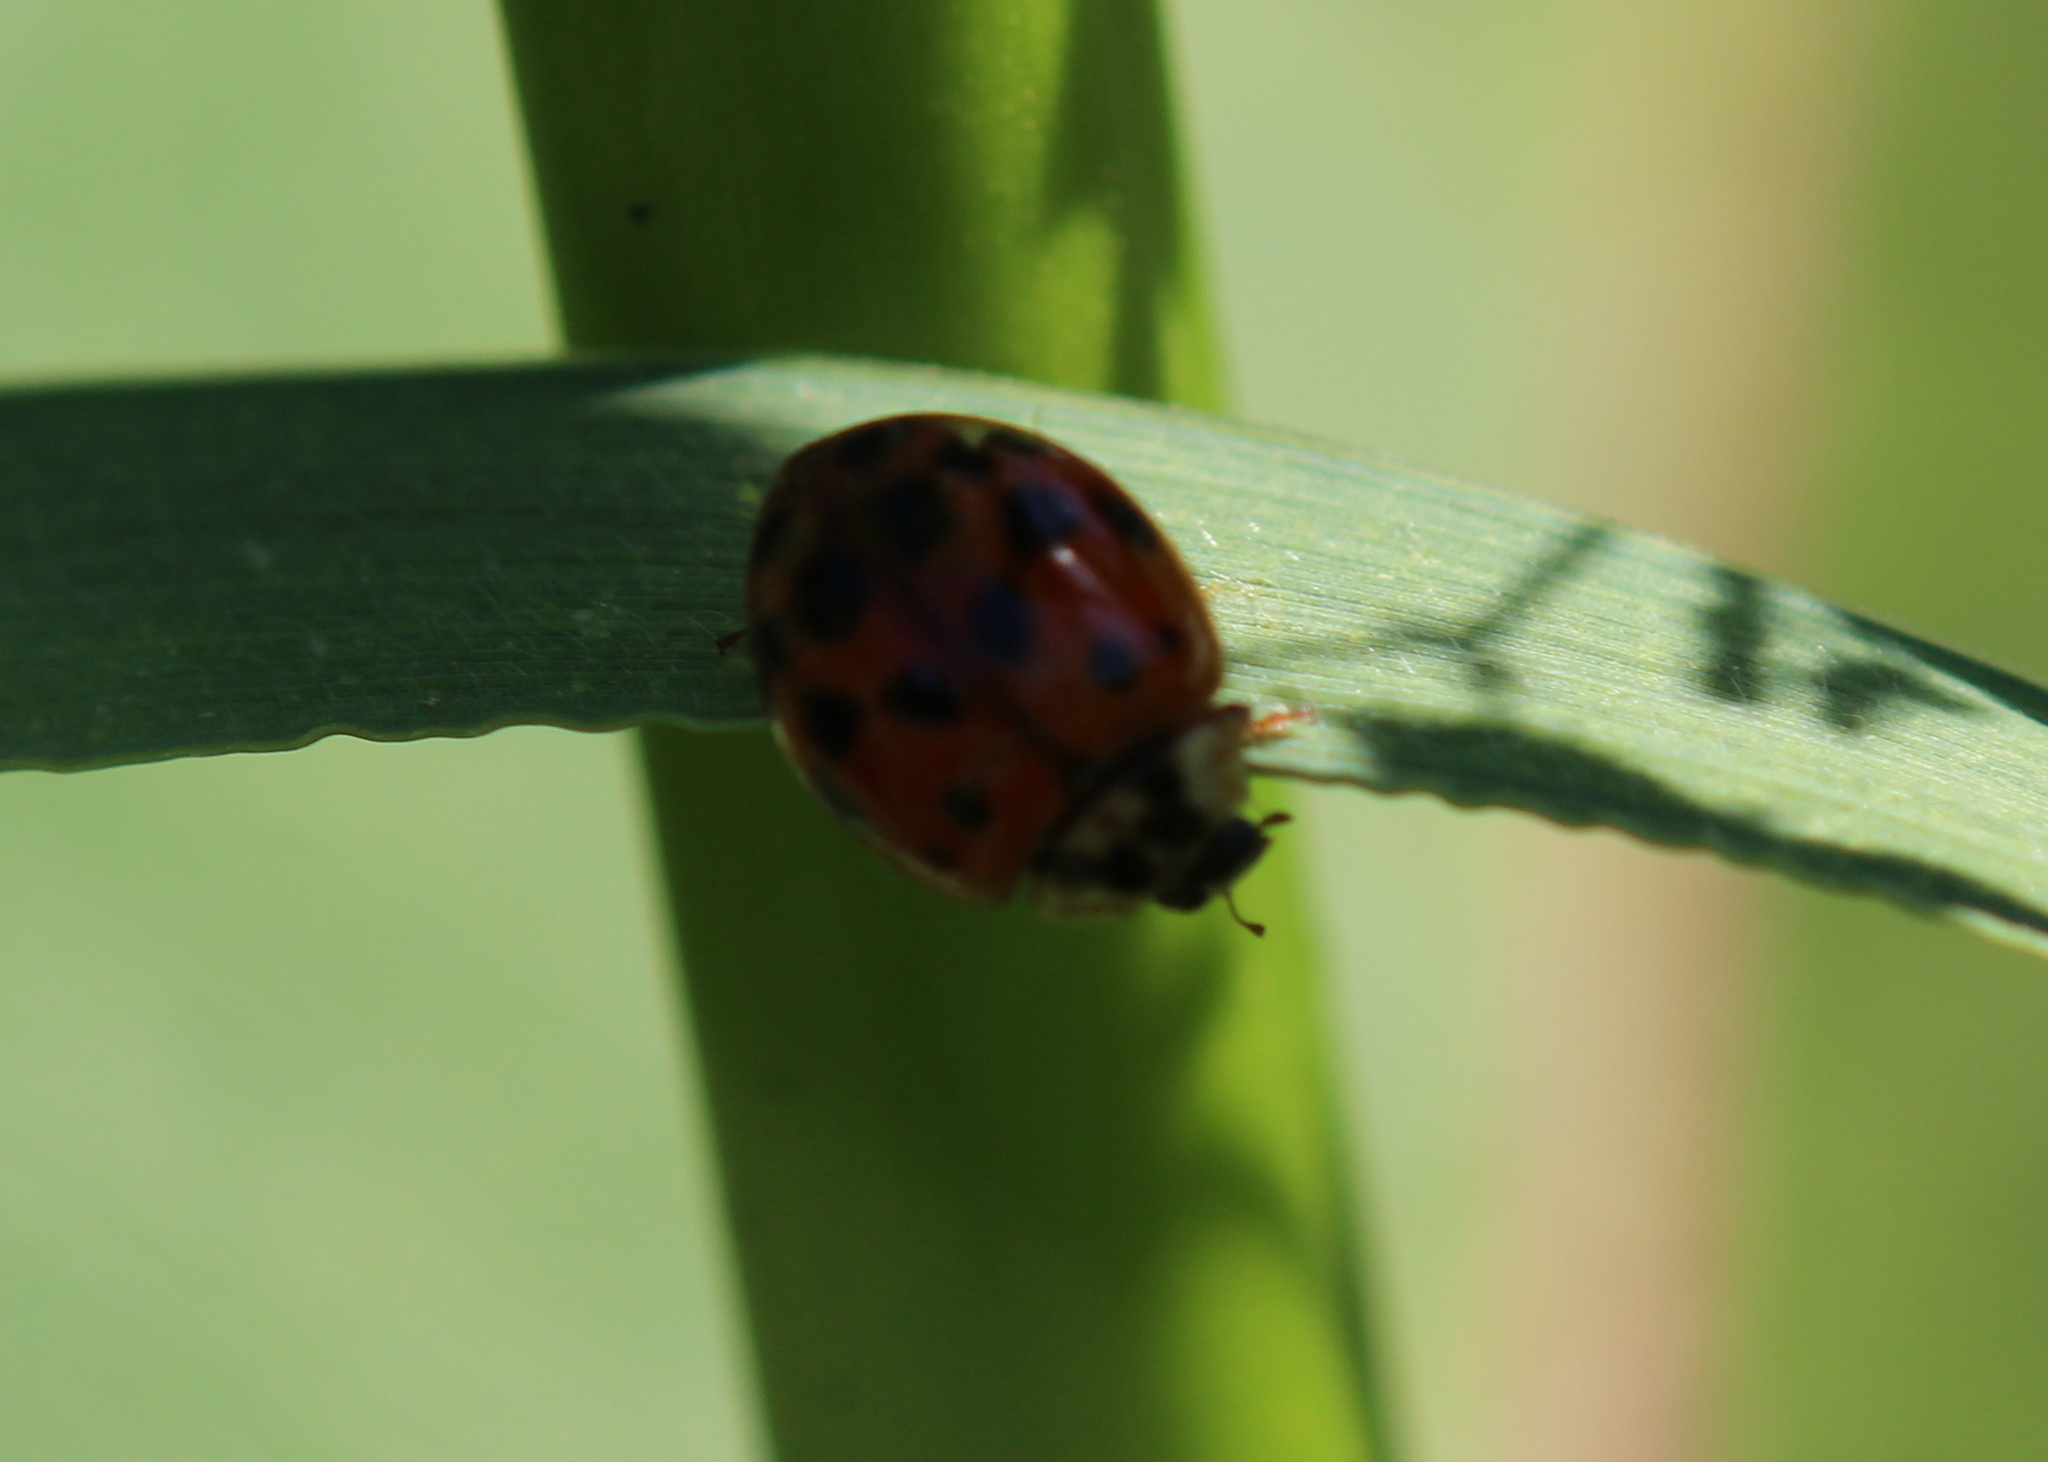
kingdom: Animalia
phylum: Arthropoda
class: Insecta
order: Coleoptera
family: Coccinellidae
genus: Harmonia
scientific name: Harmonia axyridis
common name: Harlequin ladybird
